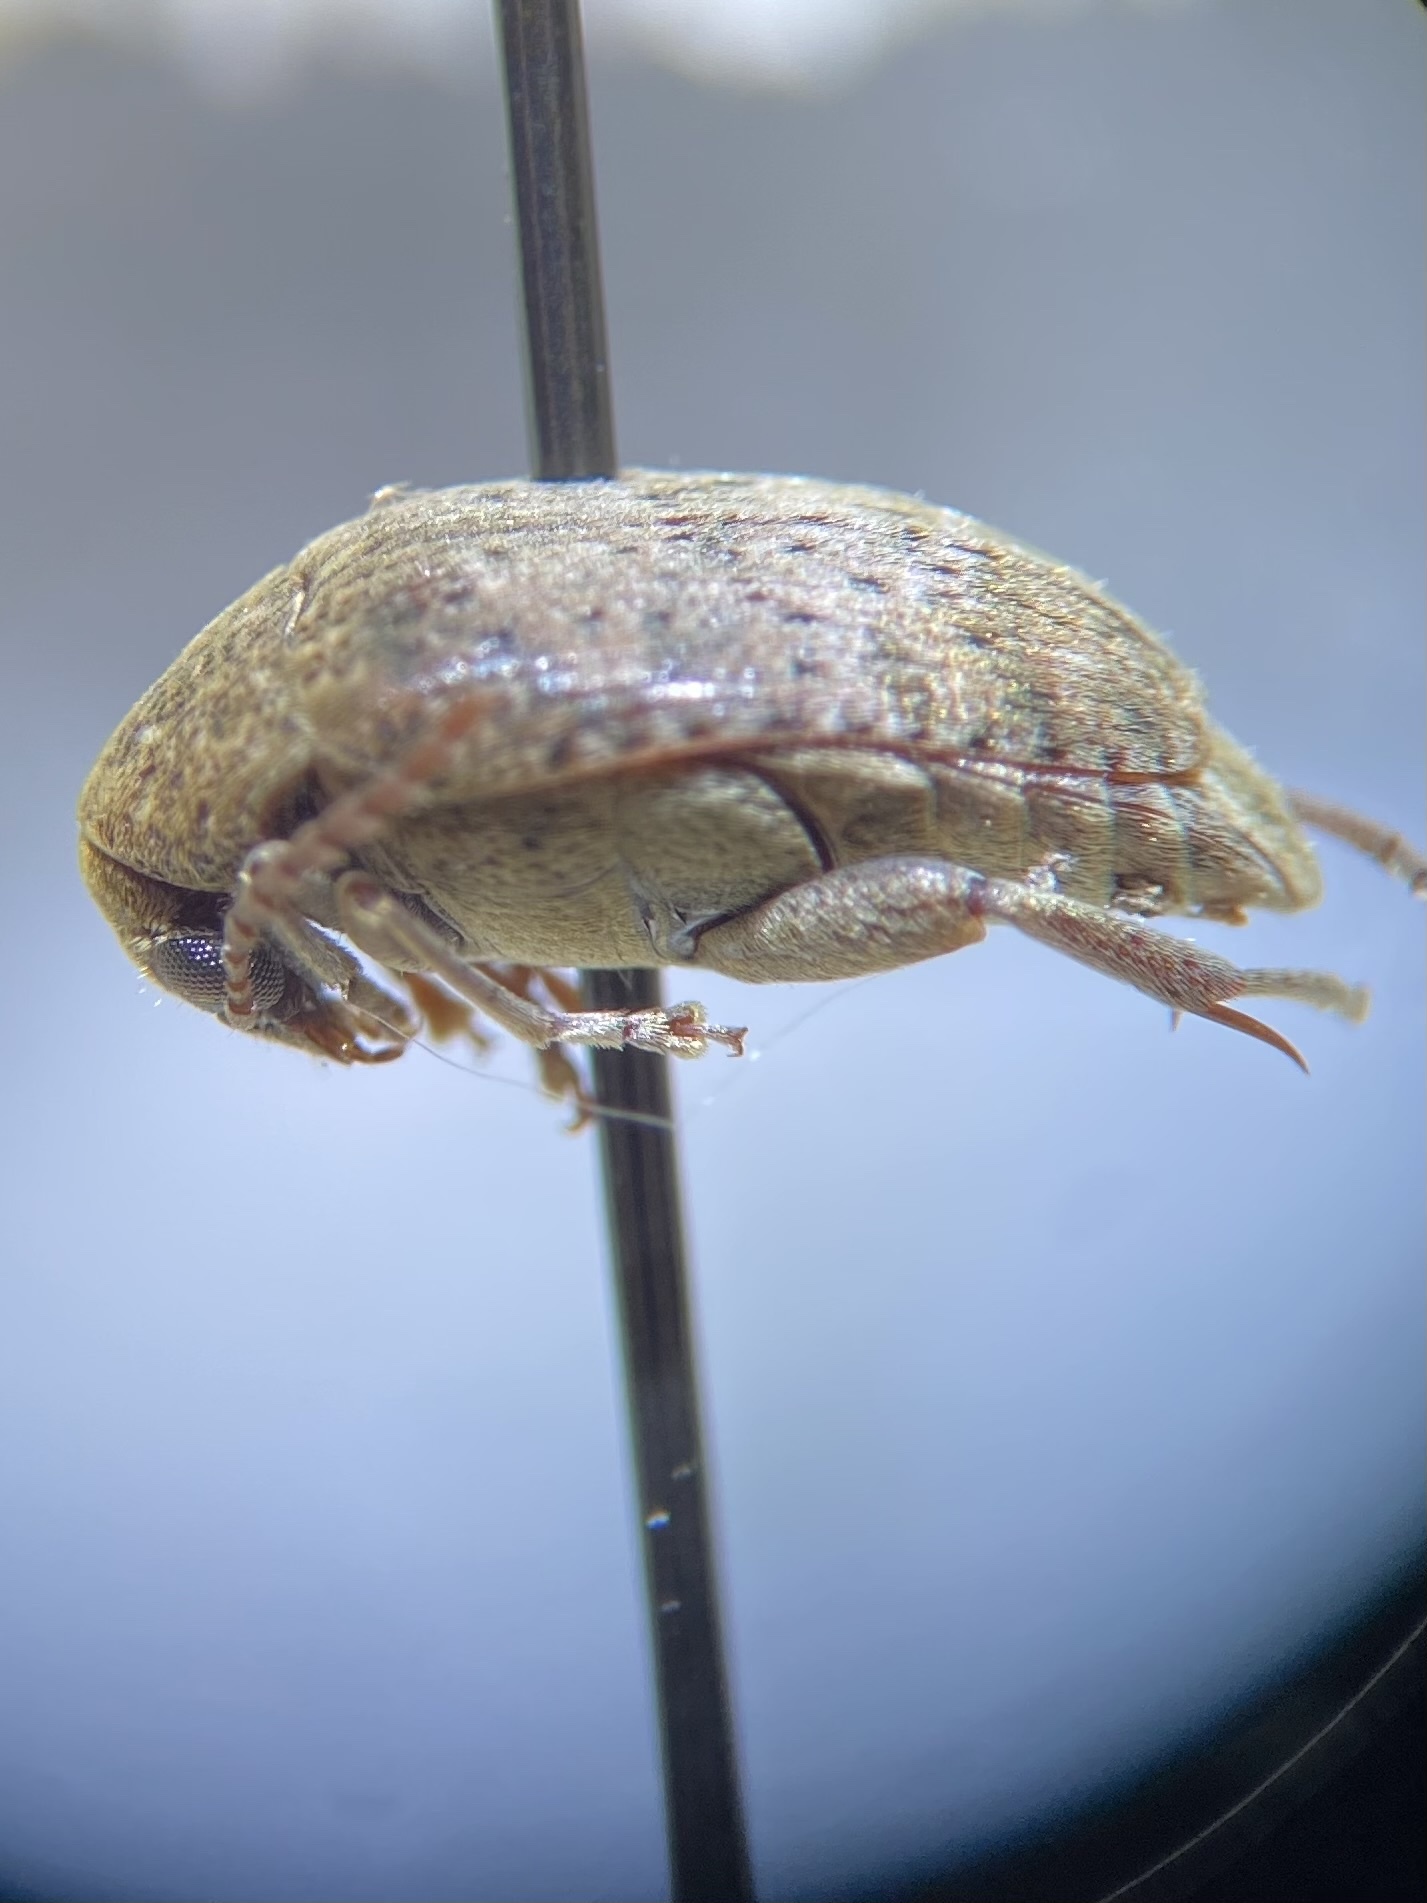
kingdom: Animalia
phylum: Arthropoda
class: Insecta
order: Coleoptera
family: Chrysomelidae
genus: Amblycerus
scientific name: Amblycerus robiniae
